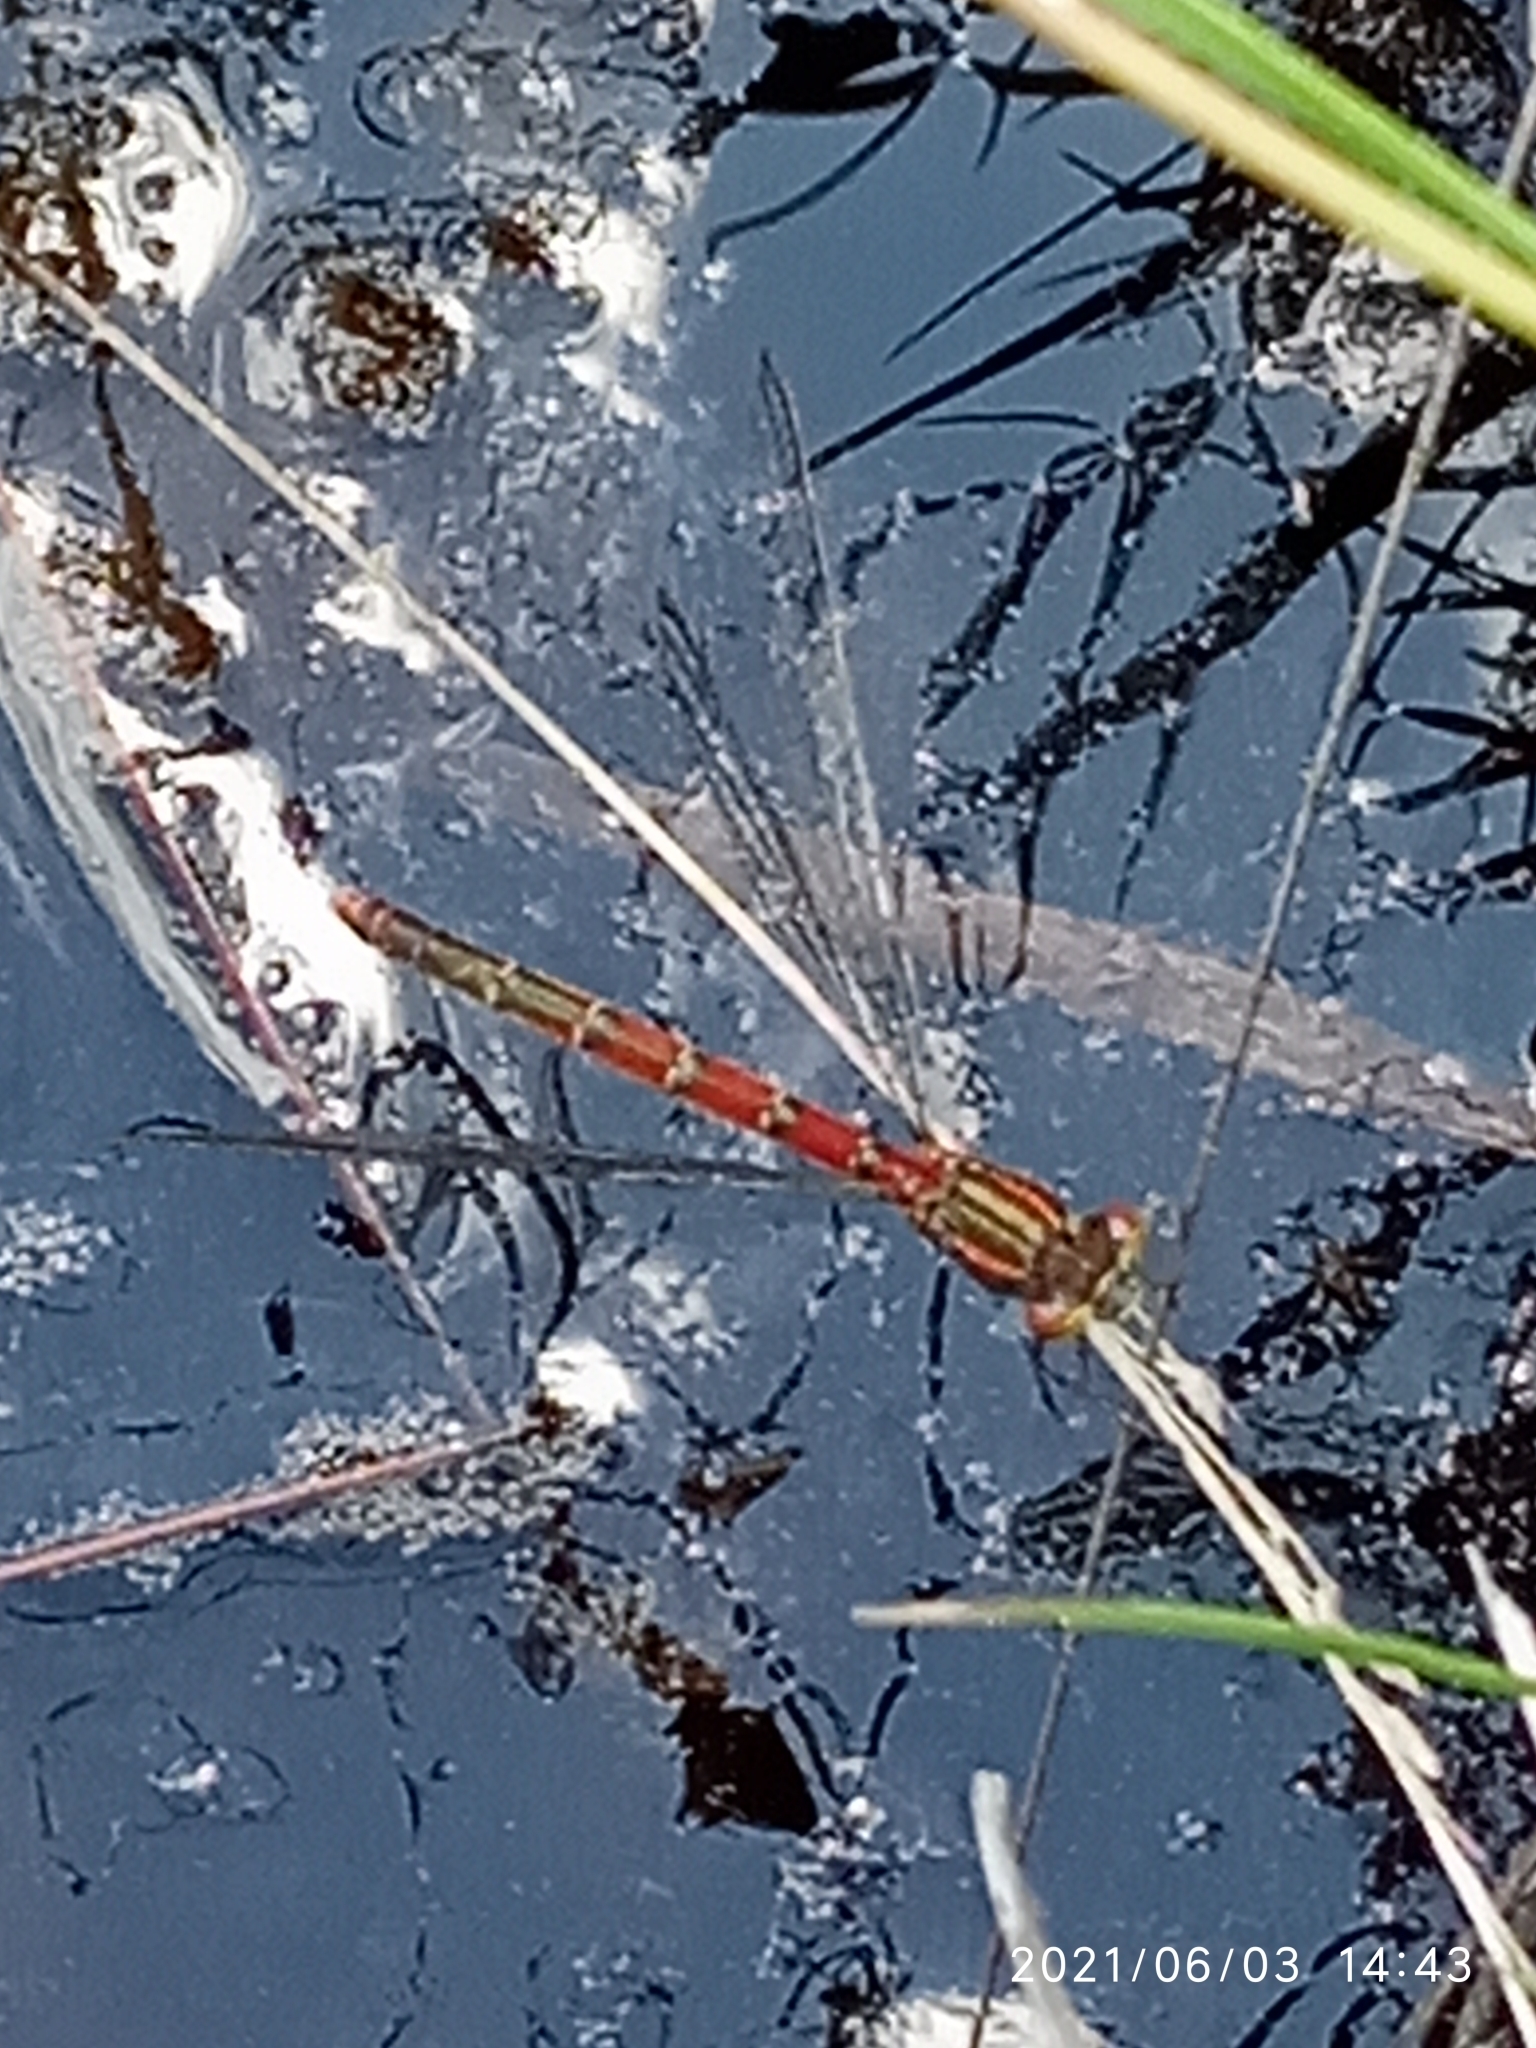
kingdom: Animalia
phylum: Arthropoda
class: Insecta
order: Odonata
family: Coenagrionidae
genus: Pyrrhosoma
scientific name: Pyrrhosoma nymphula
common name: Large red damsel
